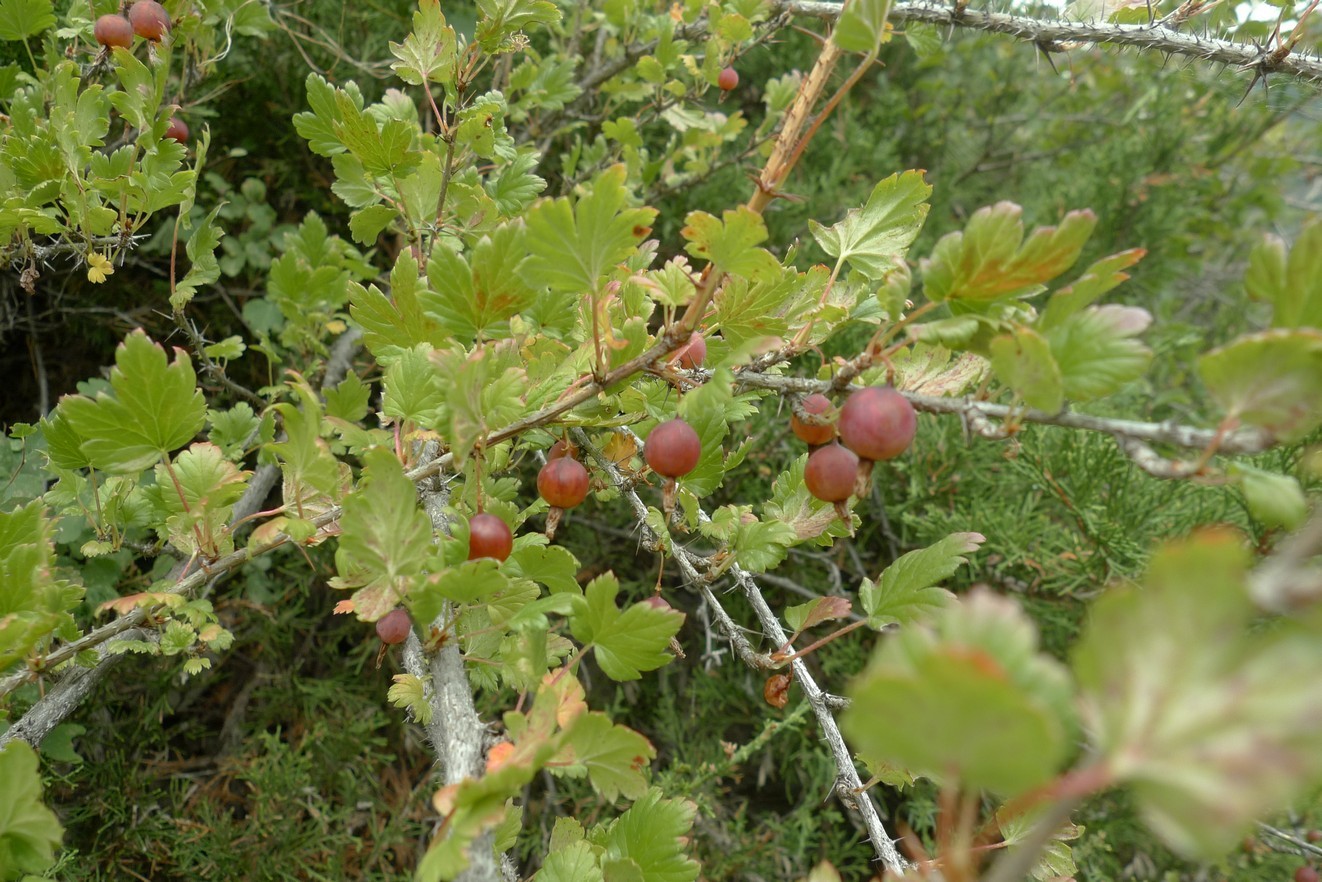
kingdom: Plantae
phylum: Tracheophyta
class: Magnoliopsida
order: Saxifragales
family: Grossulariaceae
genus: Ribes
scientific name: Ribes aciculare
